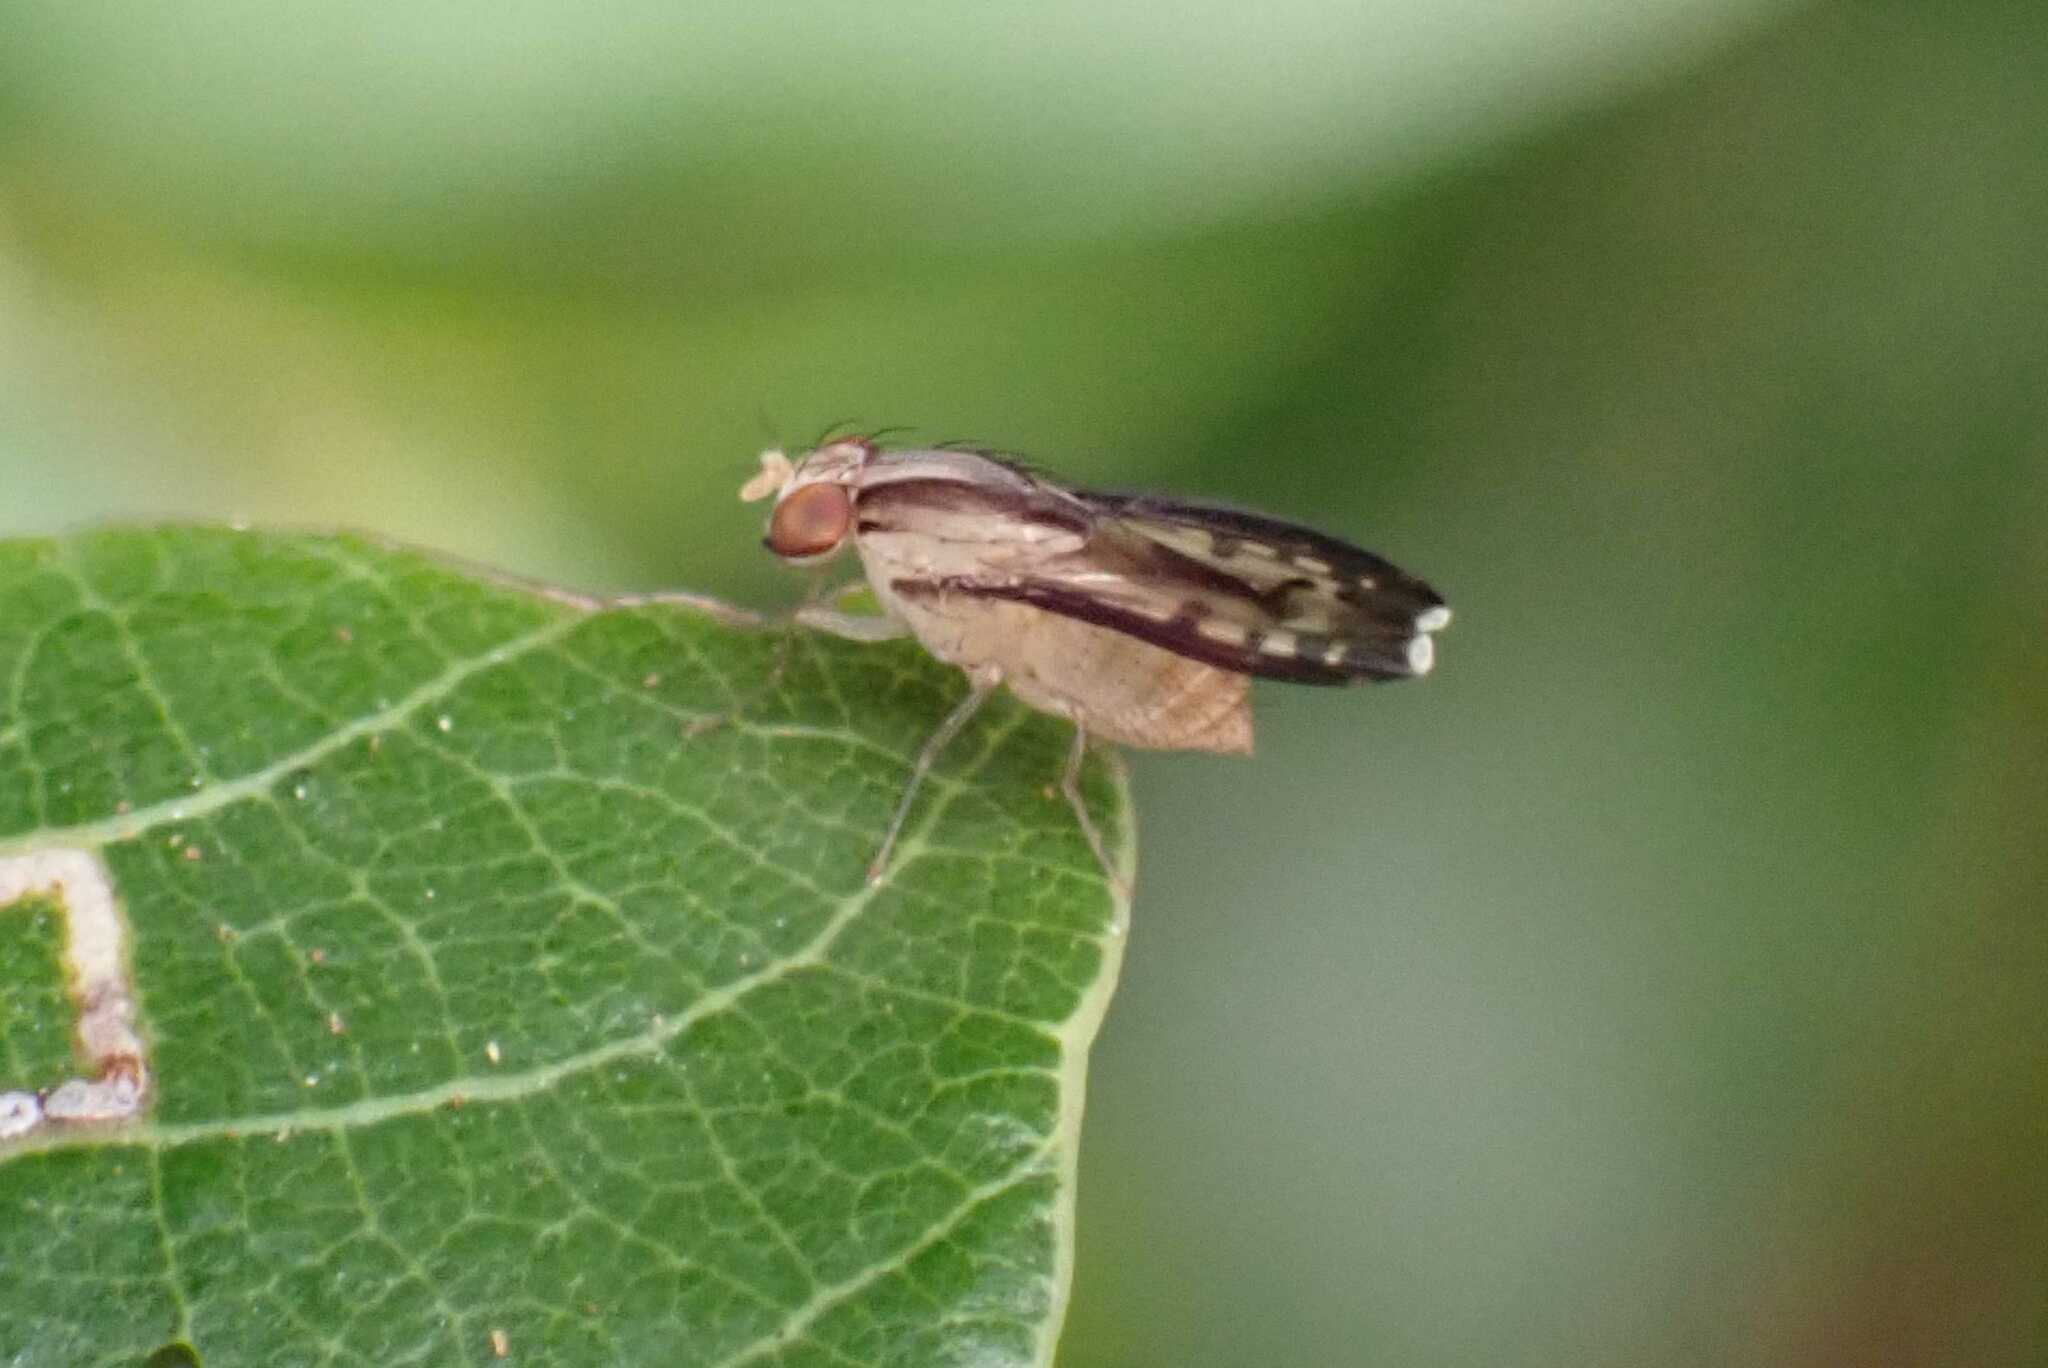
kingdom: Animalia
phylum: Arthropoda
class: Insecta
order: Diptera
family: Lauxaniidae
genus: Homoneura
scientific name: Homoneura terminalis
